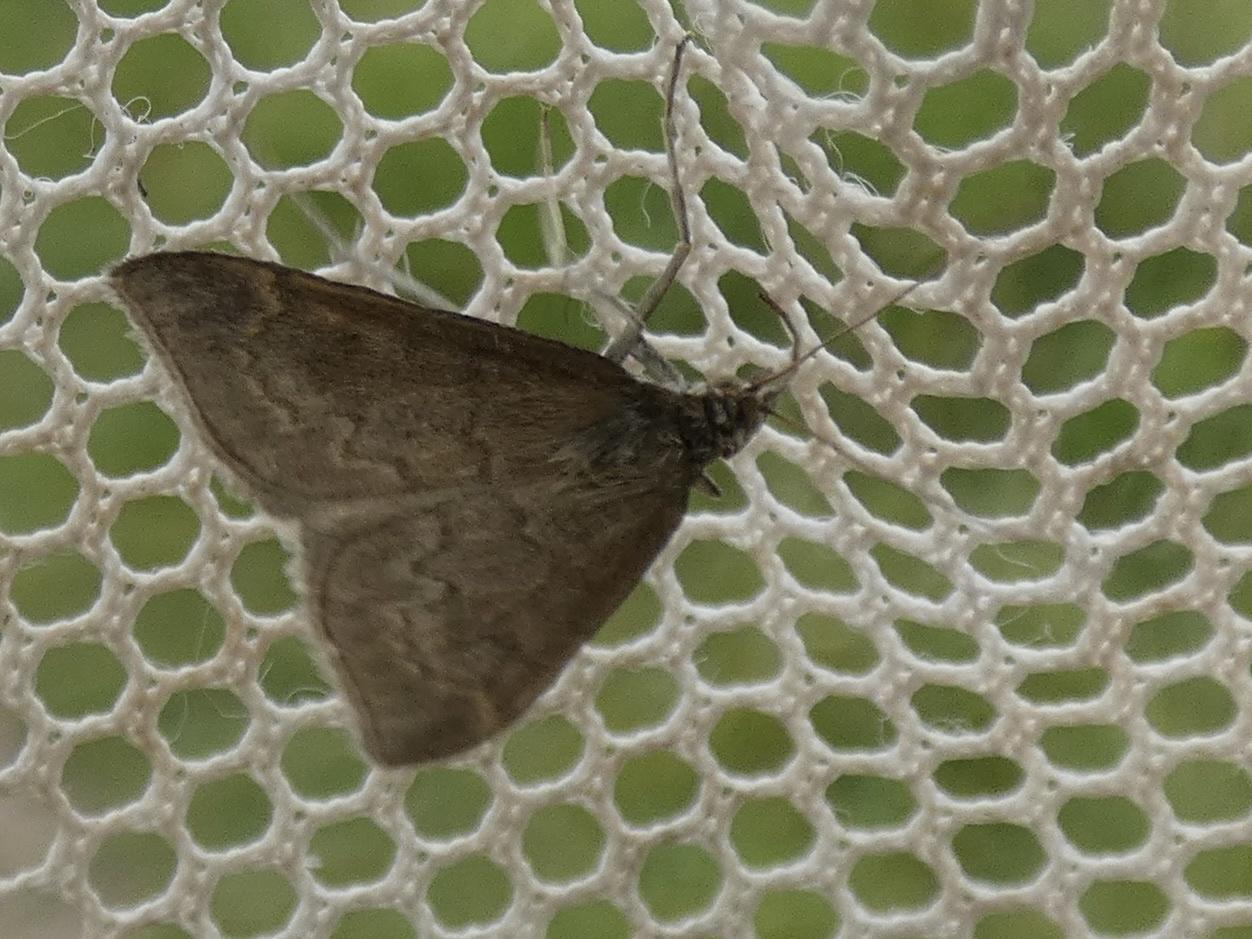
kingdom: Animalia
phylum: Arthropoda
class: Insecta
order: Lepidoptera
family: Crambidae
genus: Anania
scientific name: Anania fuscalis
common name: Cinerous pearl
